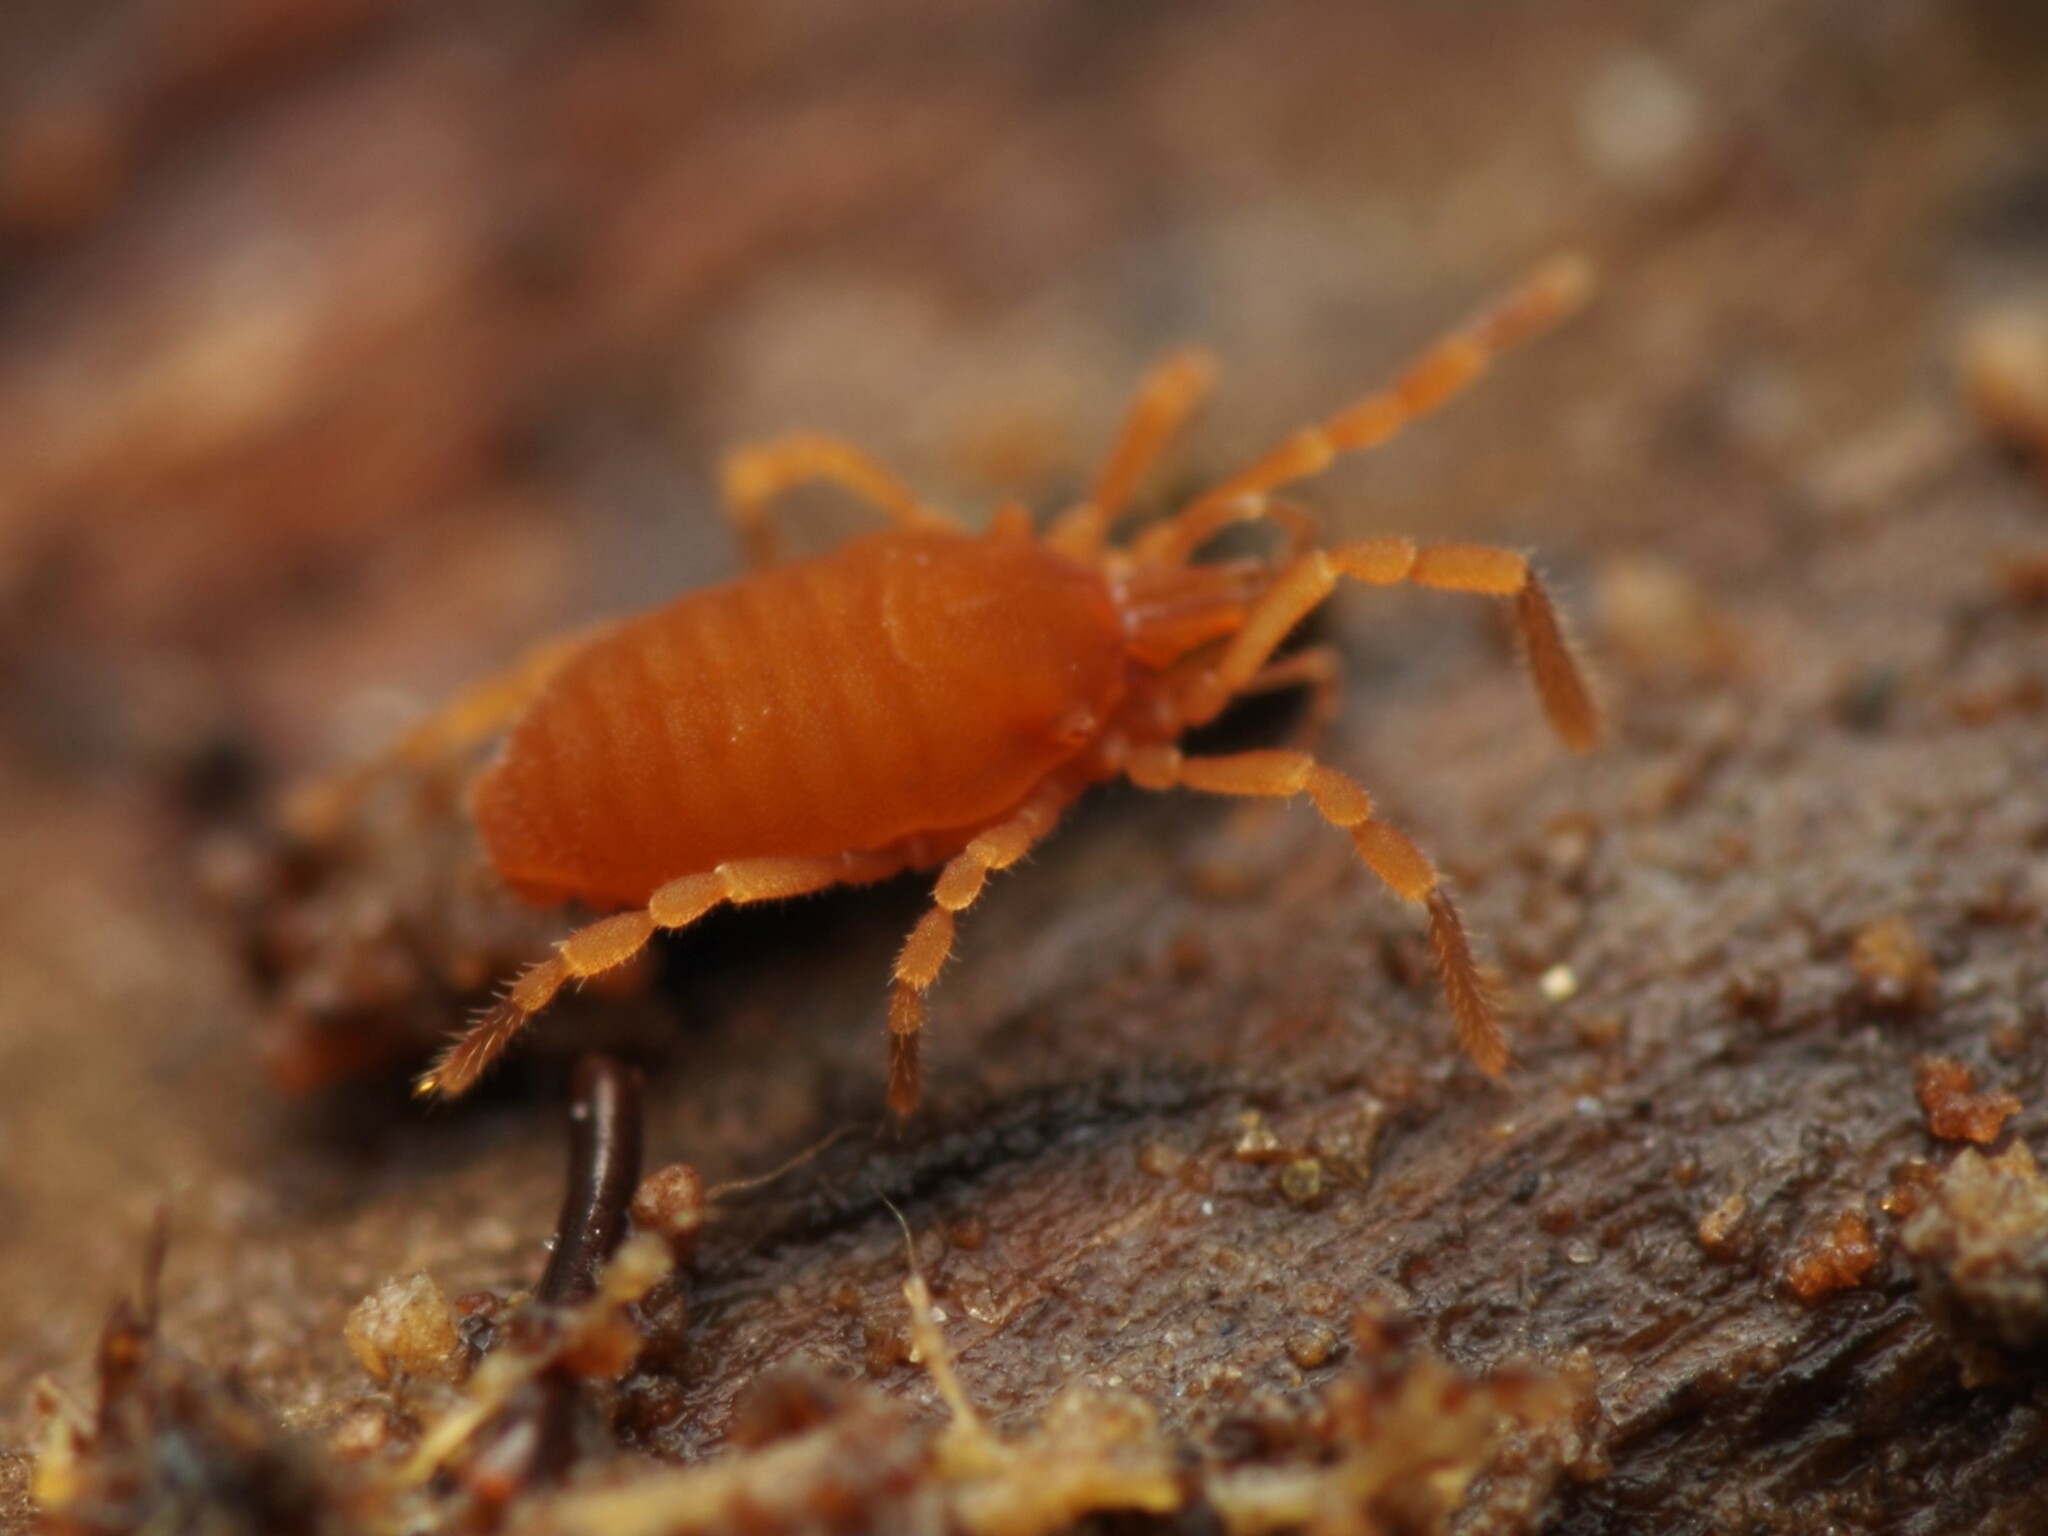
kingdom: Animalia
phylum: Arthropoda
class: Arachnida
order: Opiliones
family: Sironidae
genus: Siro
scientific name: Siro rubens
